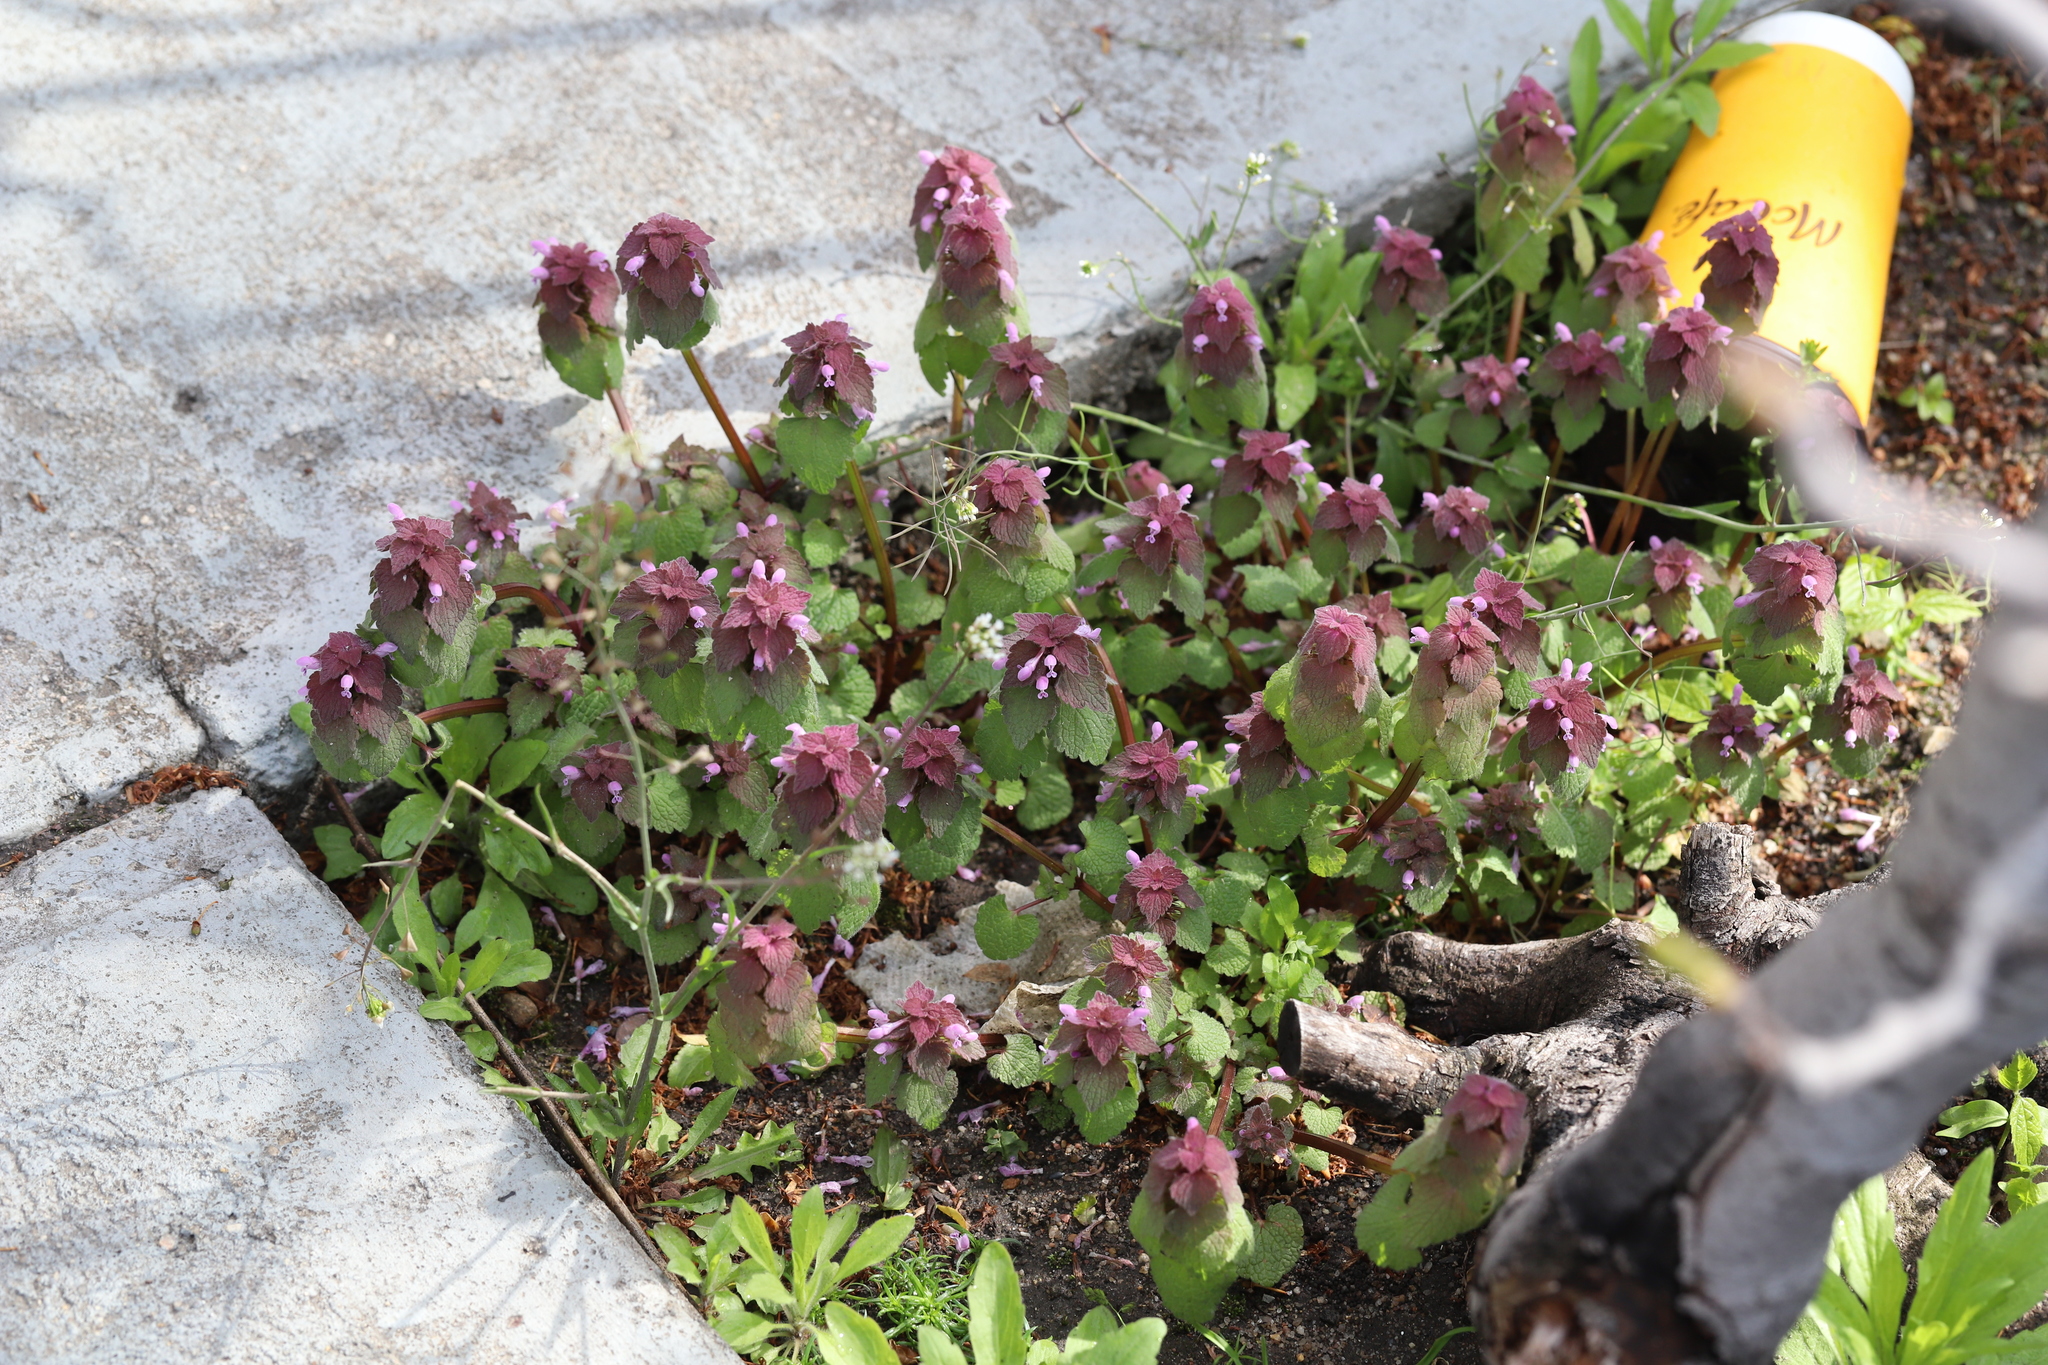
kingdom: Plantae
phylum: Tracheophyta
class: Magnoliopsida
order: Lamiales
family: Lamiaceae
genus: Lamium
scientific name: Lamium purpureum
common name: Red dead-nettle
